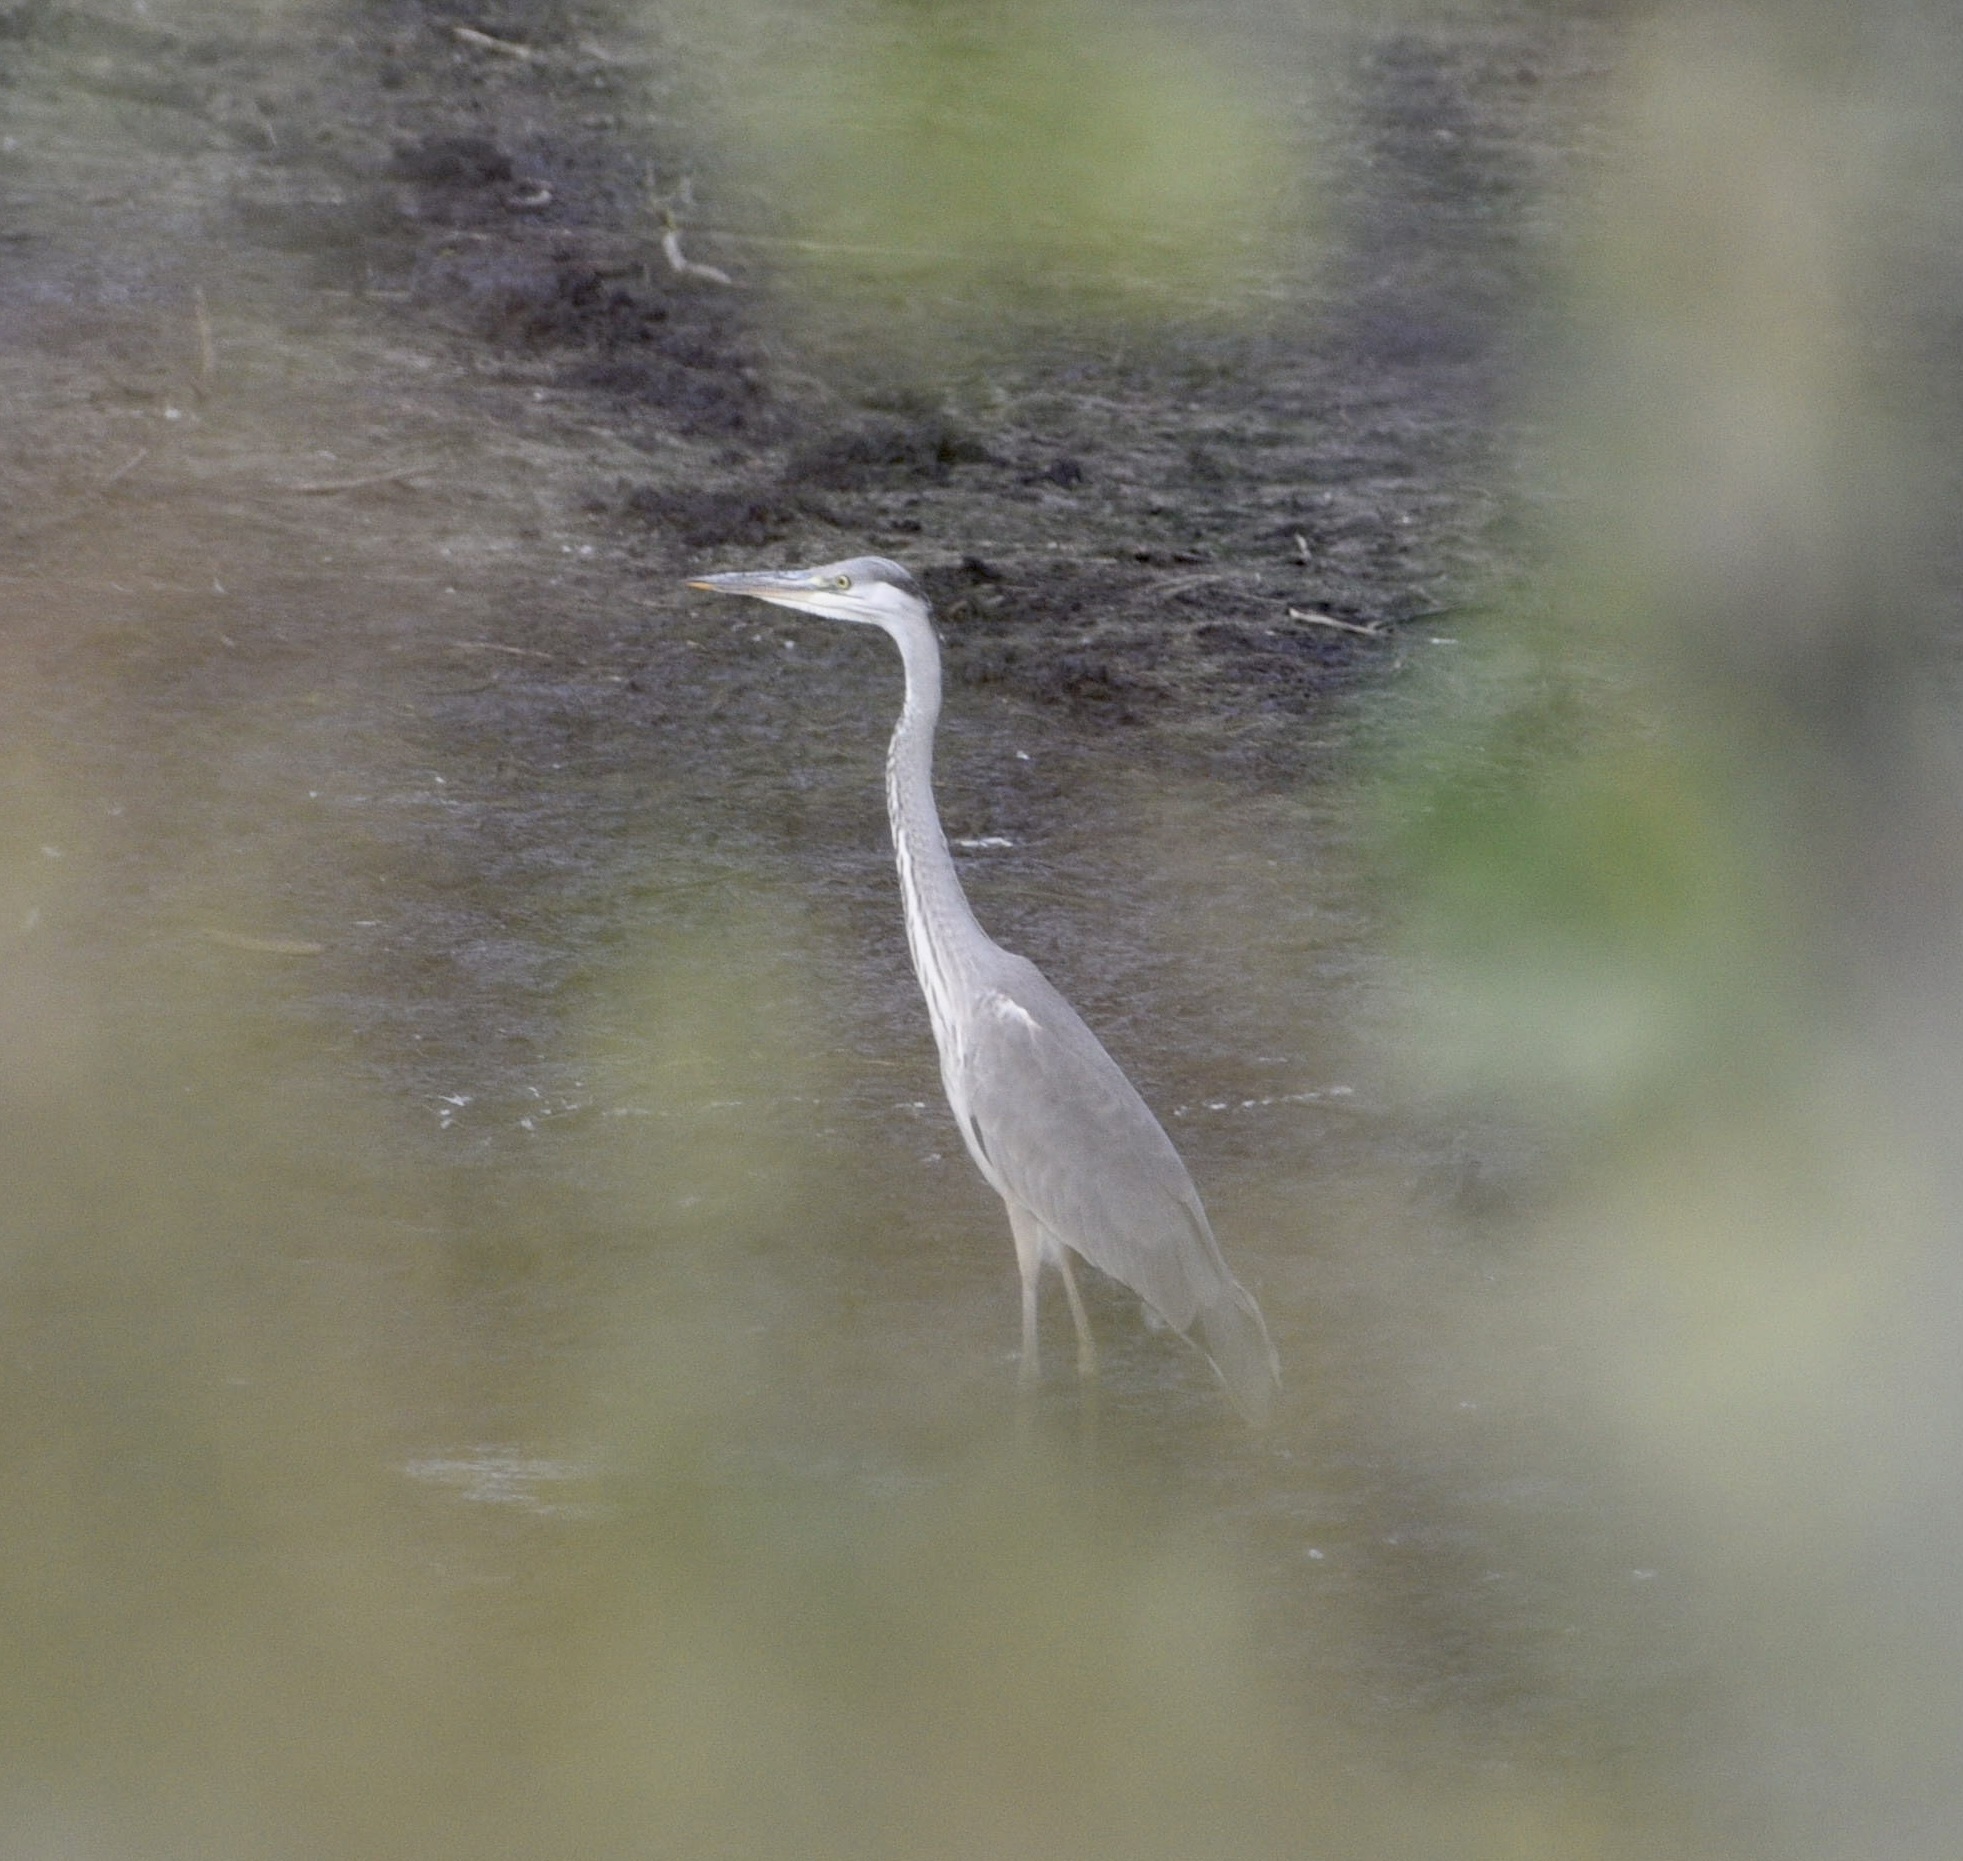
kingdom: Animalia
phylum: Chordata
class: Aves
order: Pelecaniformes
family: Ardeidae
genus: Ardea
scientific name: Ardea cinerea
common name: Grey heron
